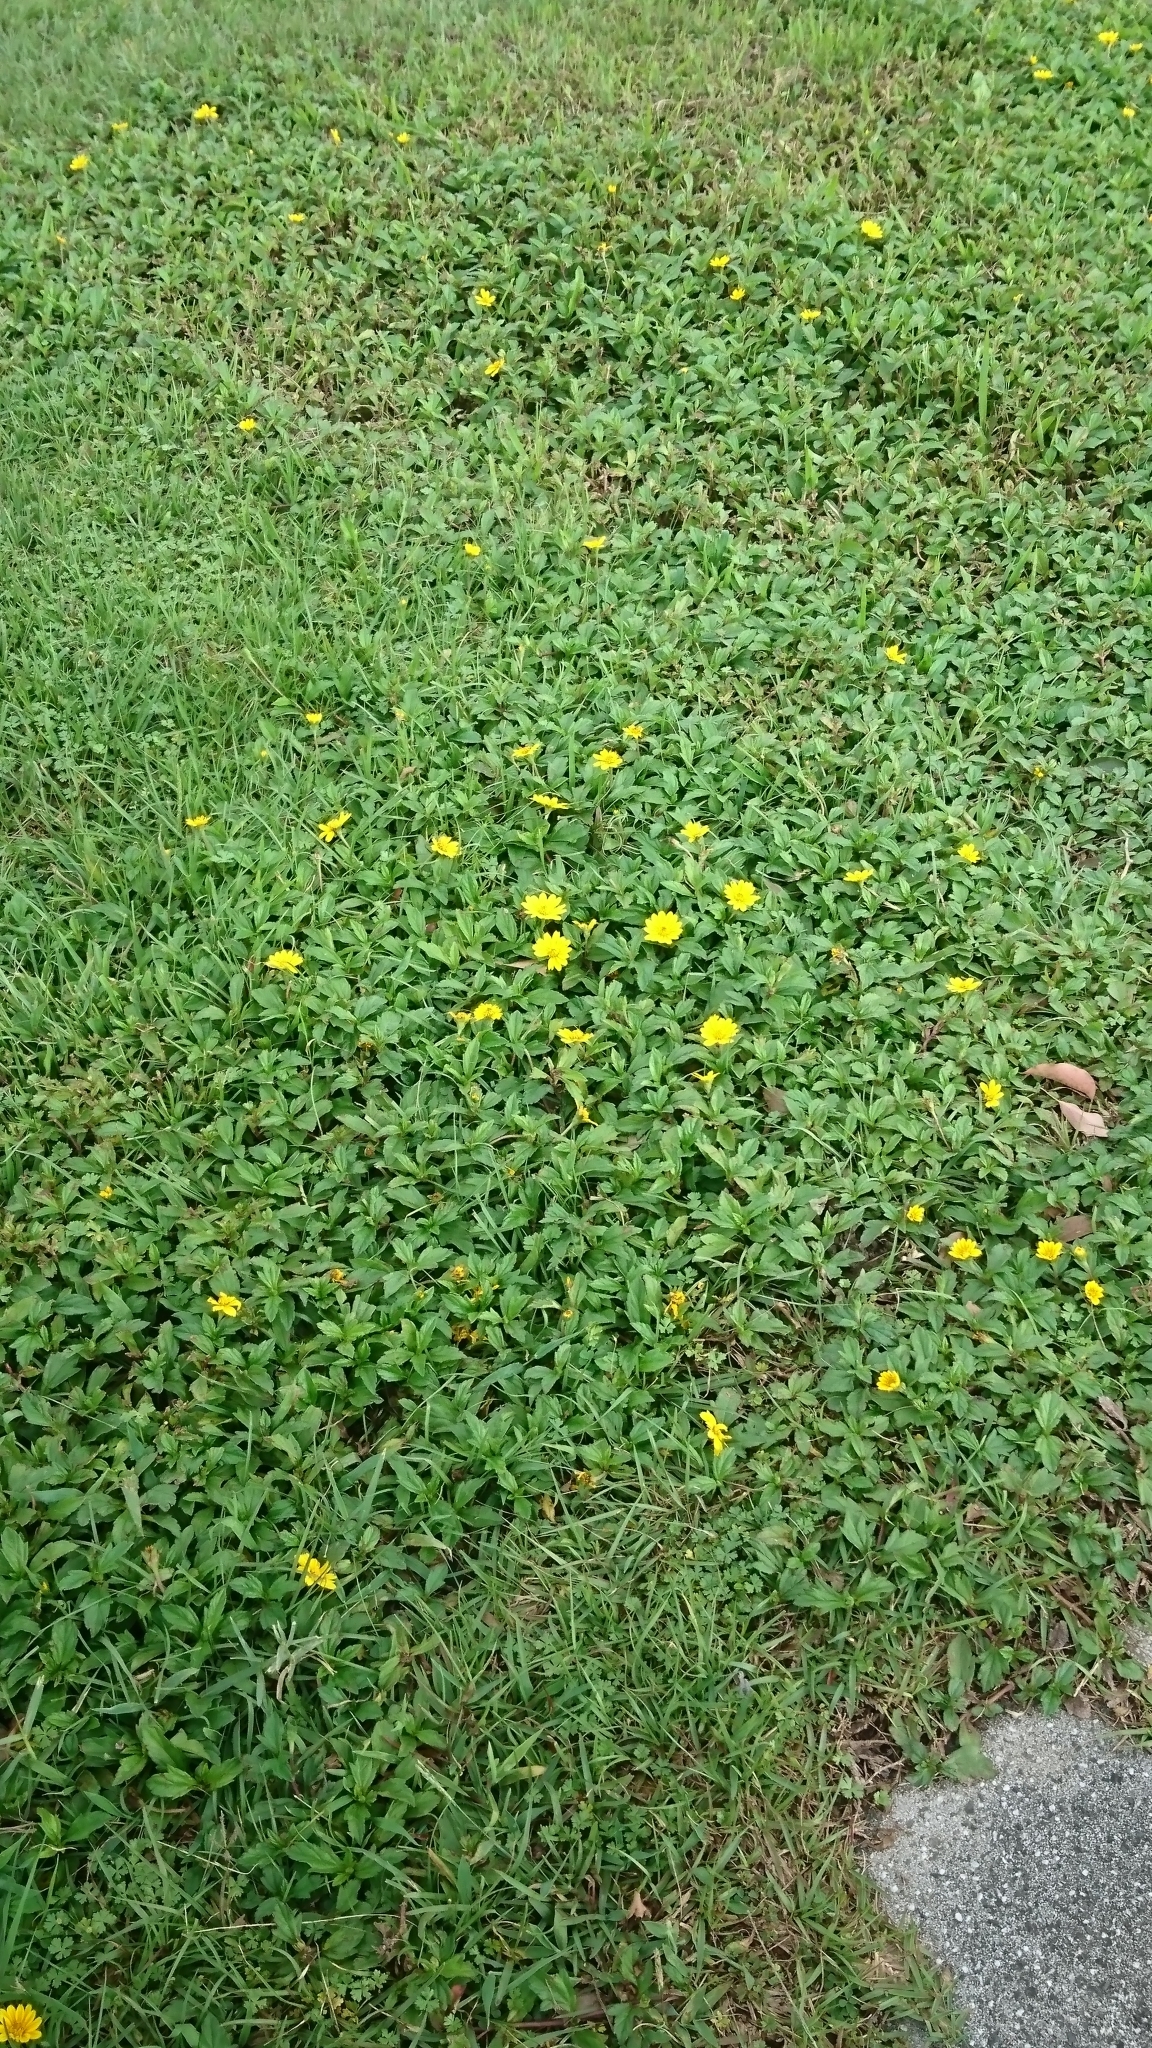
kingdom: Plantae
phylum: Tracheophyta
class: Magnoliopsida
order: Asterales
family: Asteraceae
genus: Sphagneticola
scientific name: Sphagneticola trilobata
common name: Bay biscayne creeping-oxeye
